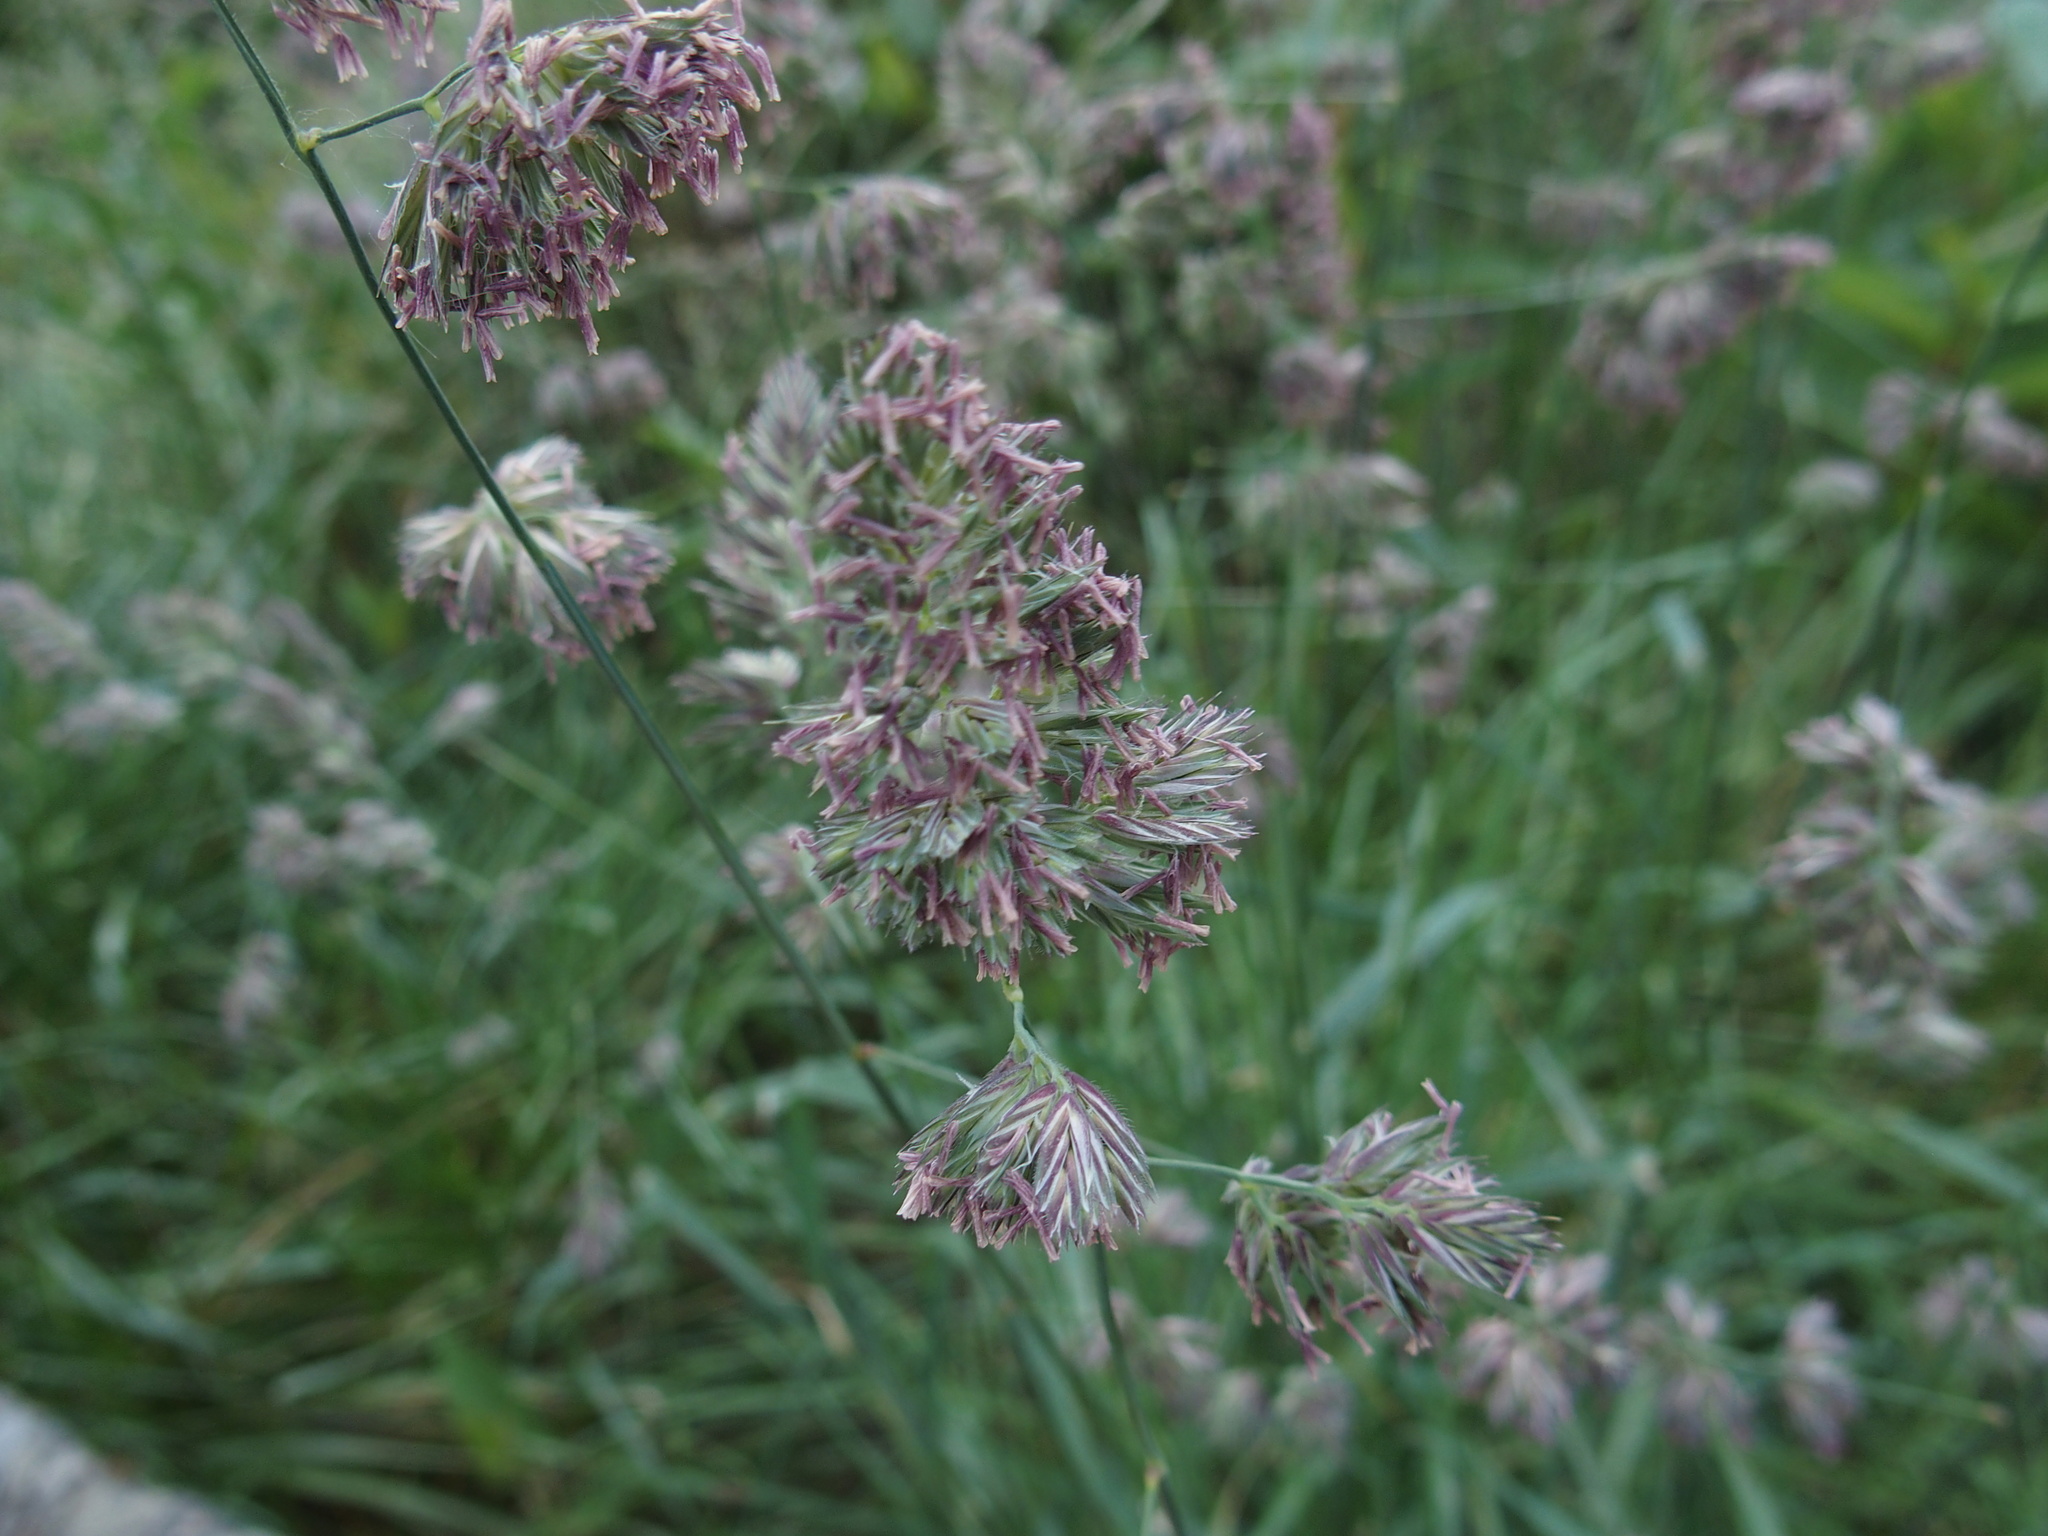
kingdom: Plantae
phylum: Tracheophyta
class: Liliopsida
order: Poales
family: Poaceae
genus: Dactylis
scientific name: Dactylis glomerata
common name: Orchardgrass
